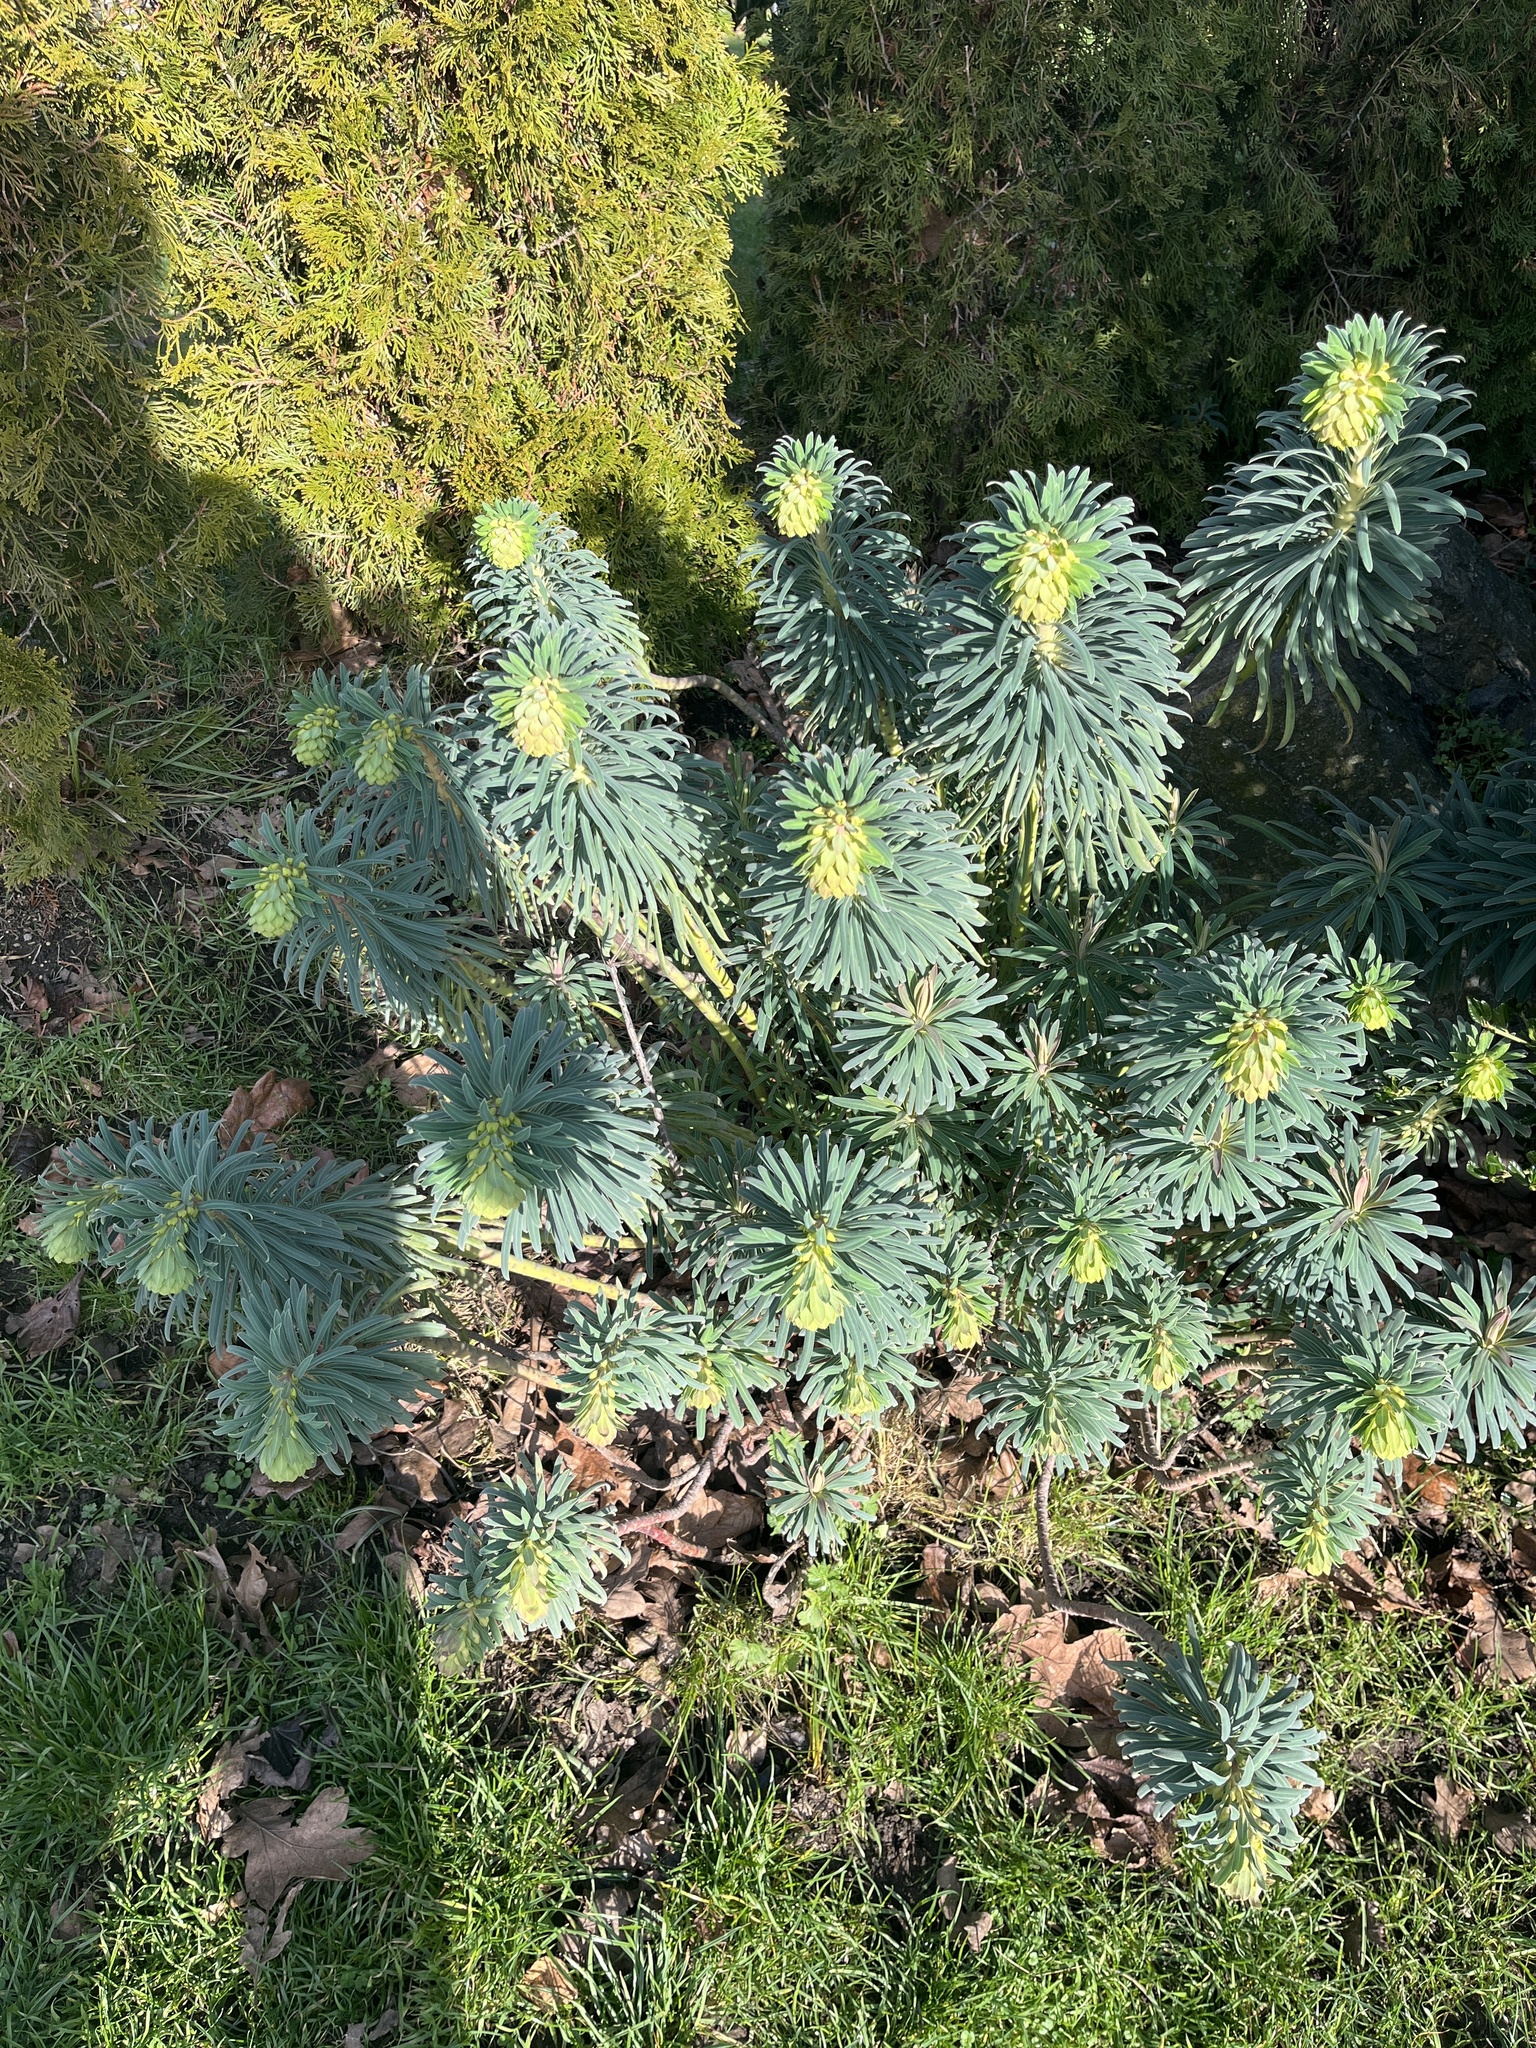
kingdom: Plantae
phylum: Tracheophyta
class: Magnoliopsida
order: Malpighiales
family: Euphorbiaceae
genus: Euphorbia
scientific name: Euphorbia characias
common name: Mediterranean spurge
